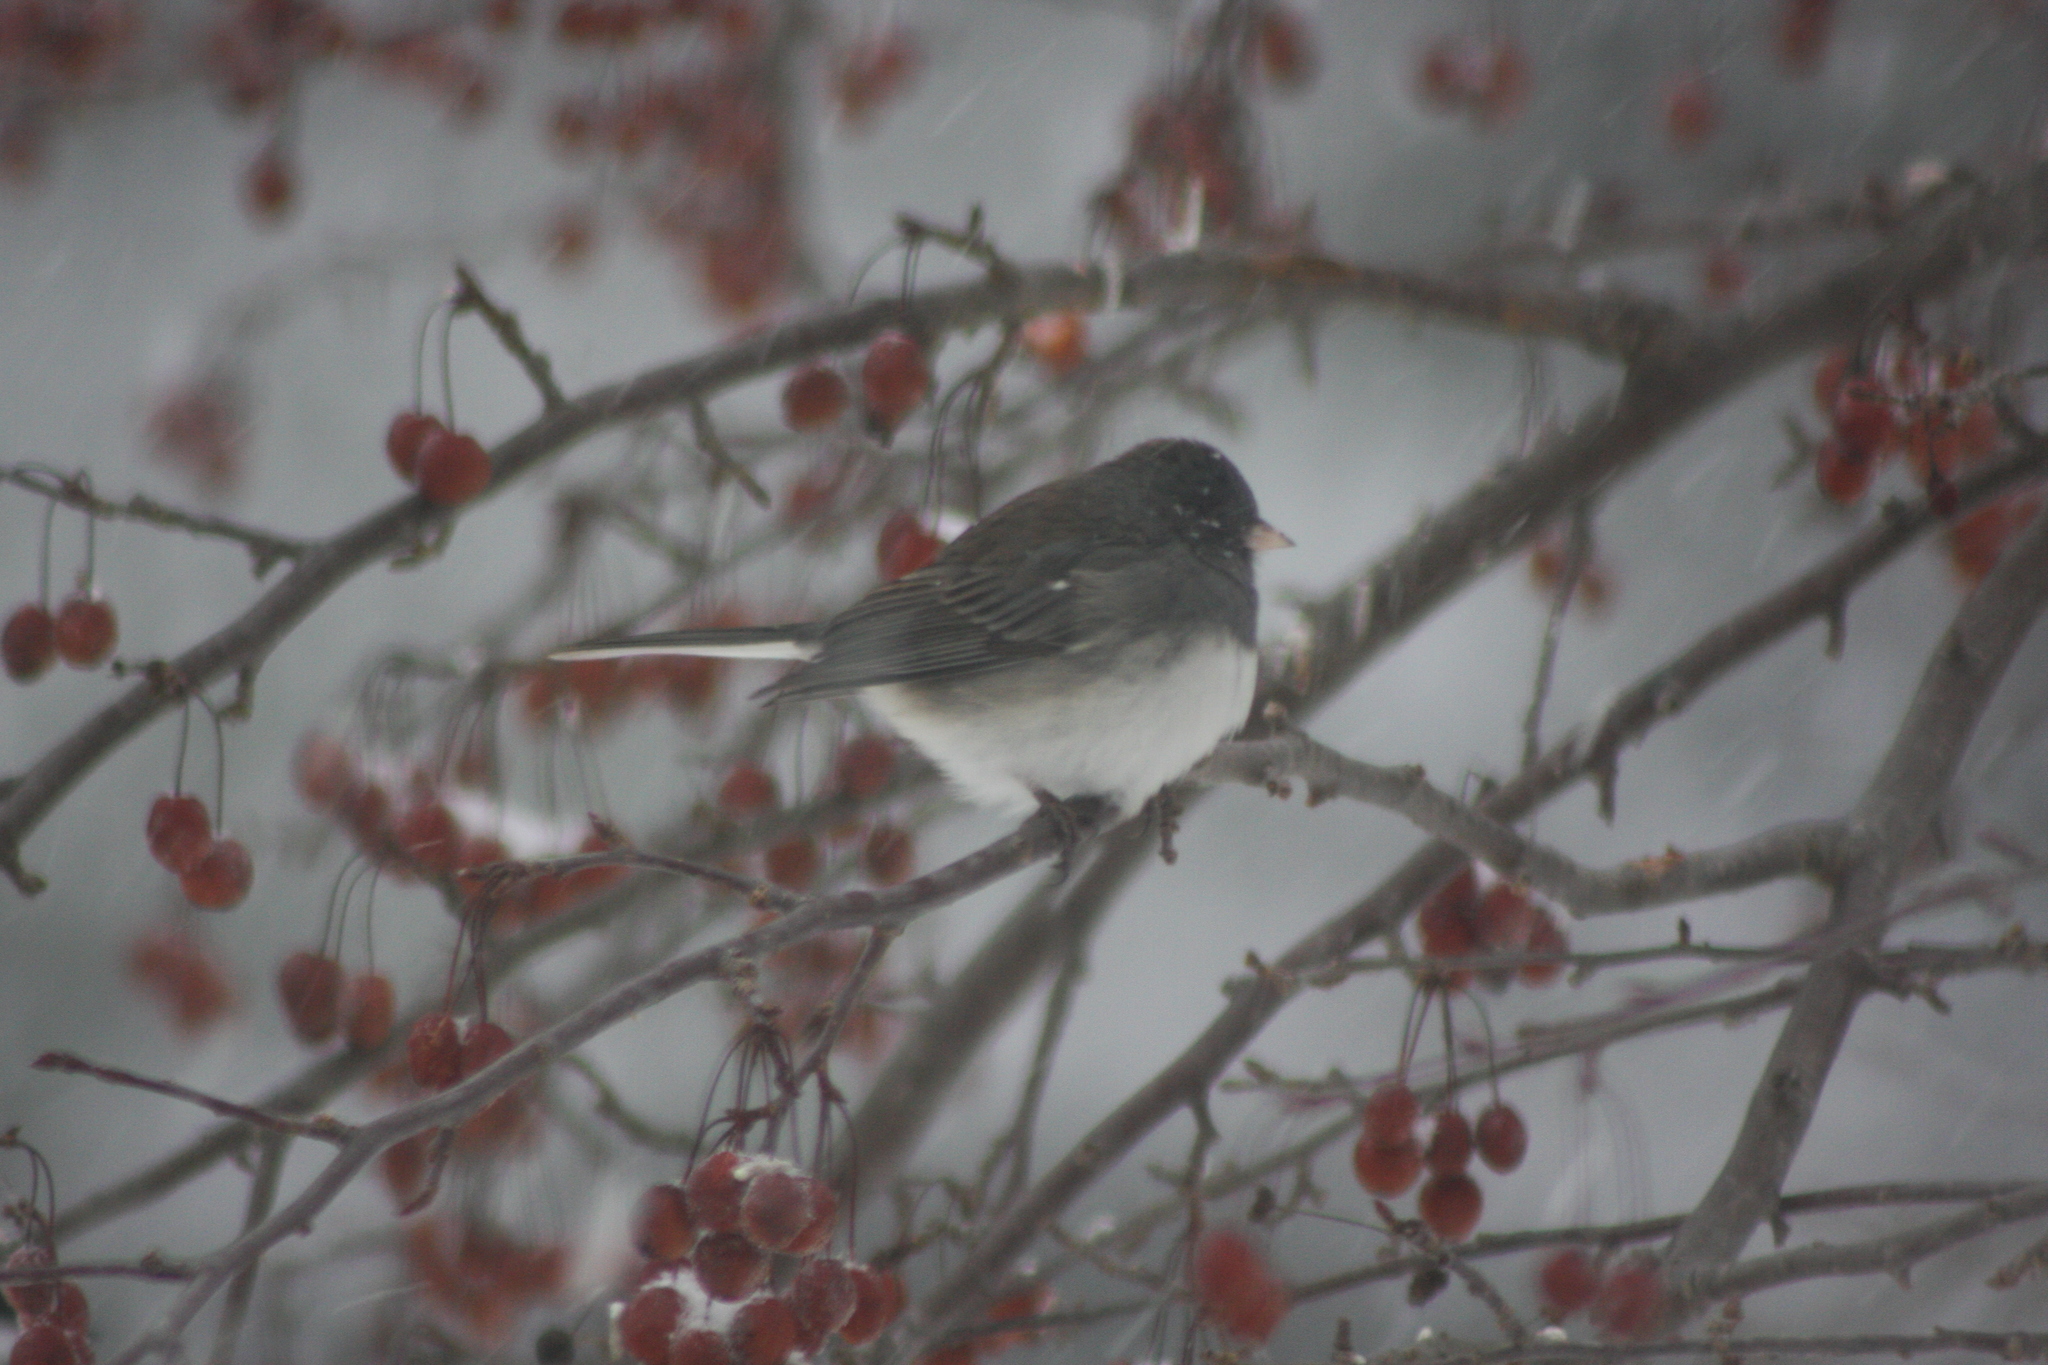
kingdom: Animalia
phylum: Chordata
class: Aves
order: Passeriformes
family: Passerellidae
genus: Junco
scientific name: Junco hyemalis
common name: Dark-eyed junco
